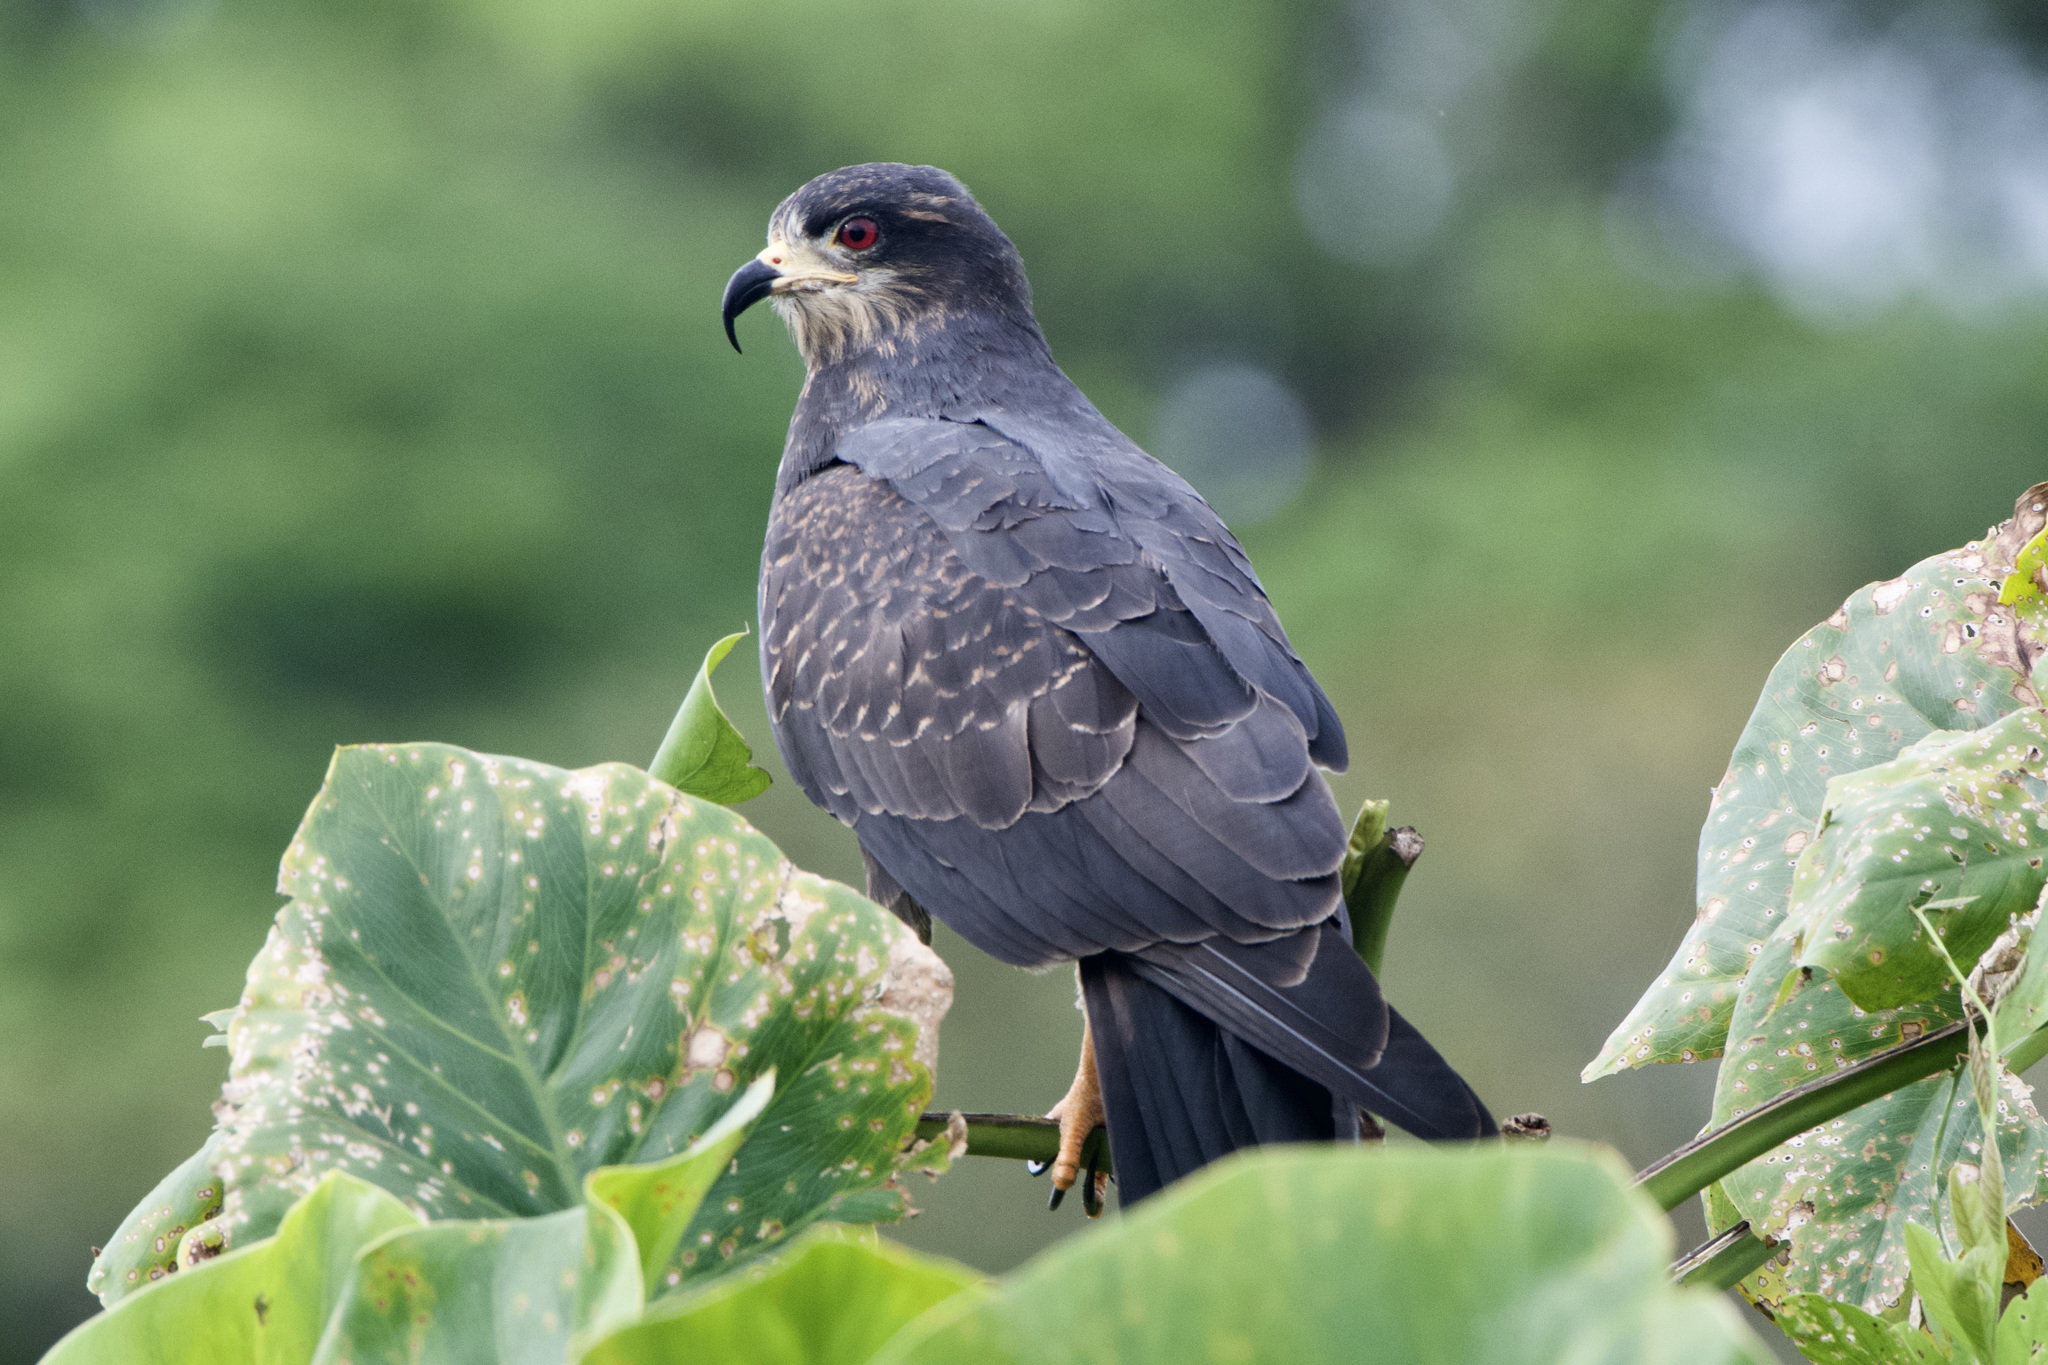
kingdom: Animalia
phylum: Chordata
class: Aves
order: Accipitriformes
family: Accipitridae
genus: Rostrhamus
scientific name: Rostrhamus sociabilis
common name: Snail kite
